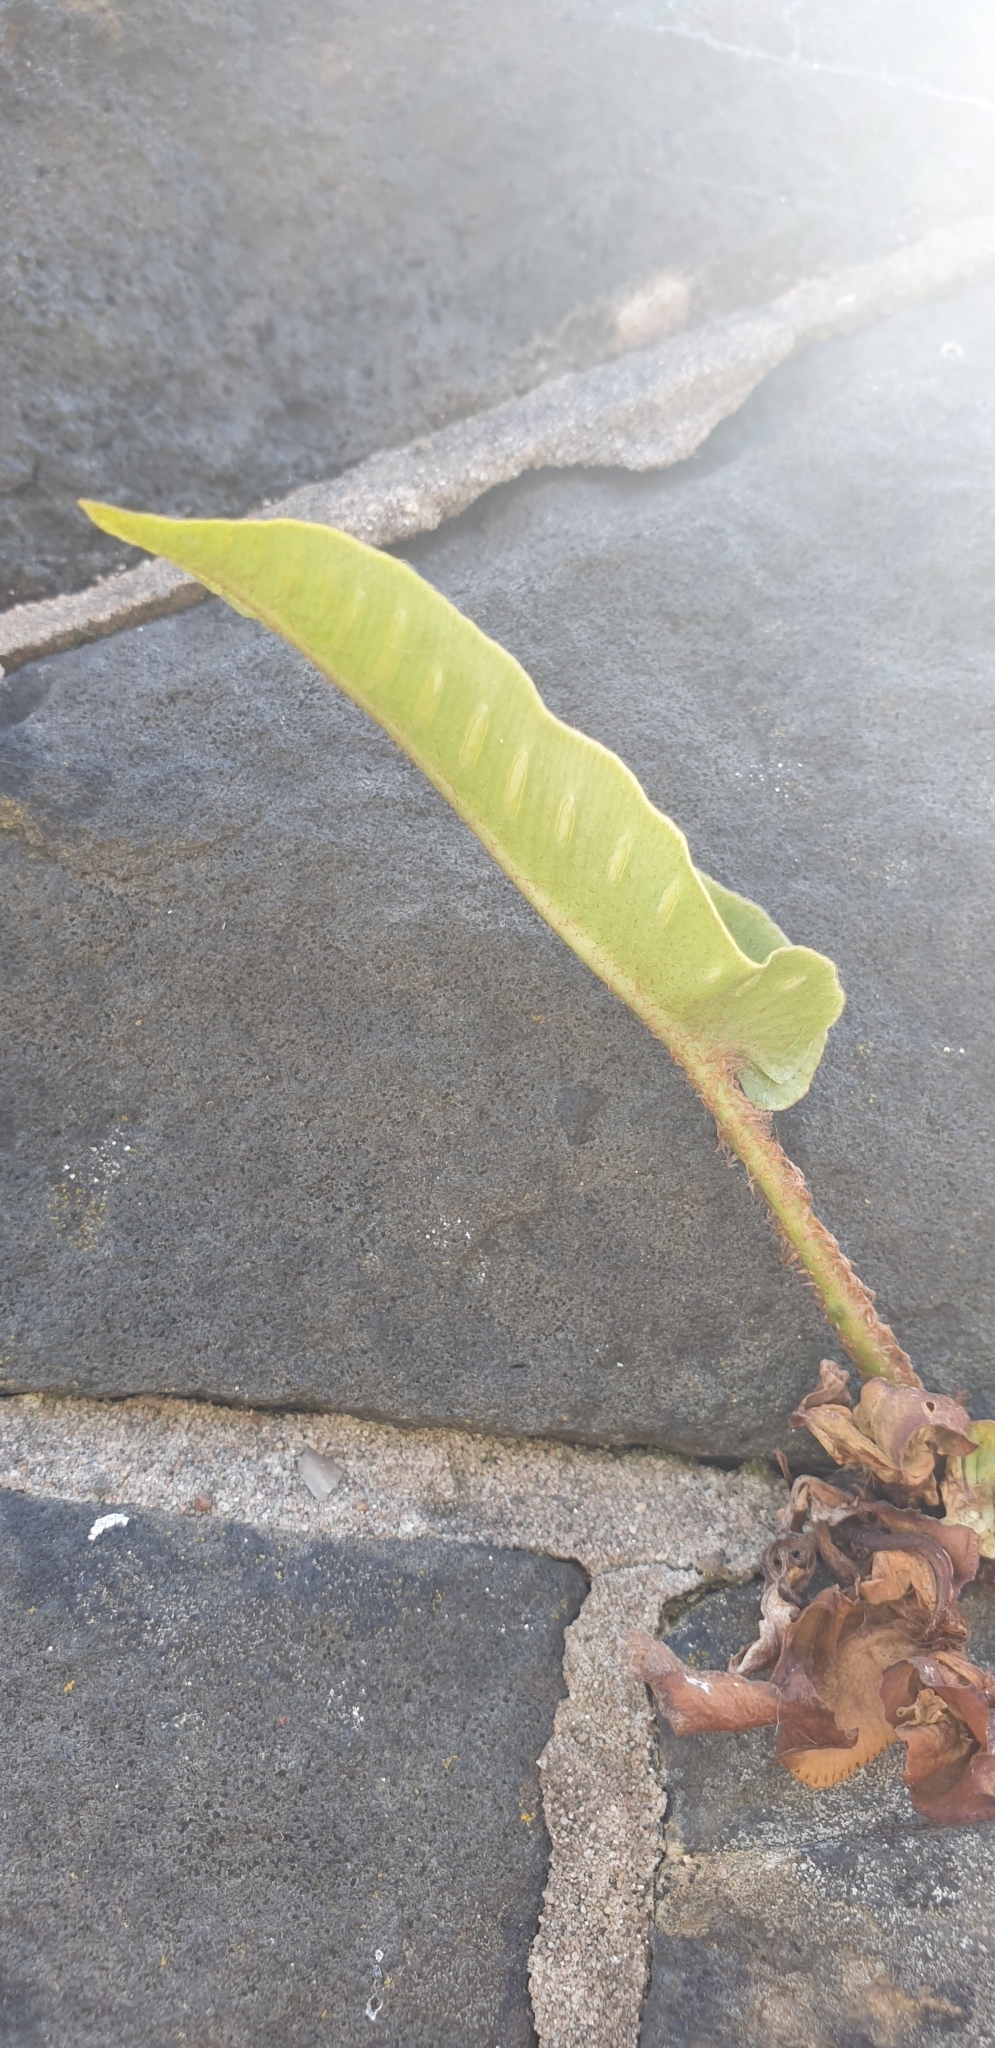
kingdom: Plantae
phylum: Tracheophyta
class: Polypodiopsida
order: Polypodiales
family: Aspleniaceae
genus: Asplenium
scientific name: Asplenium scolopendrium
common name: Hart's-tongue fern
